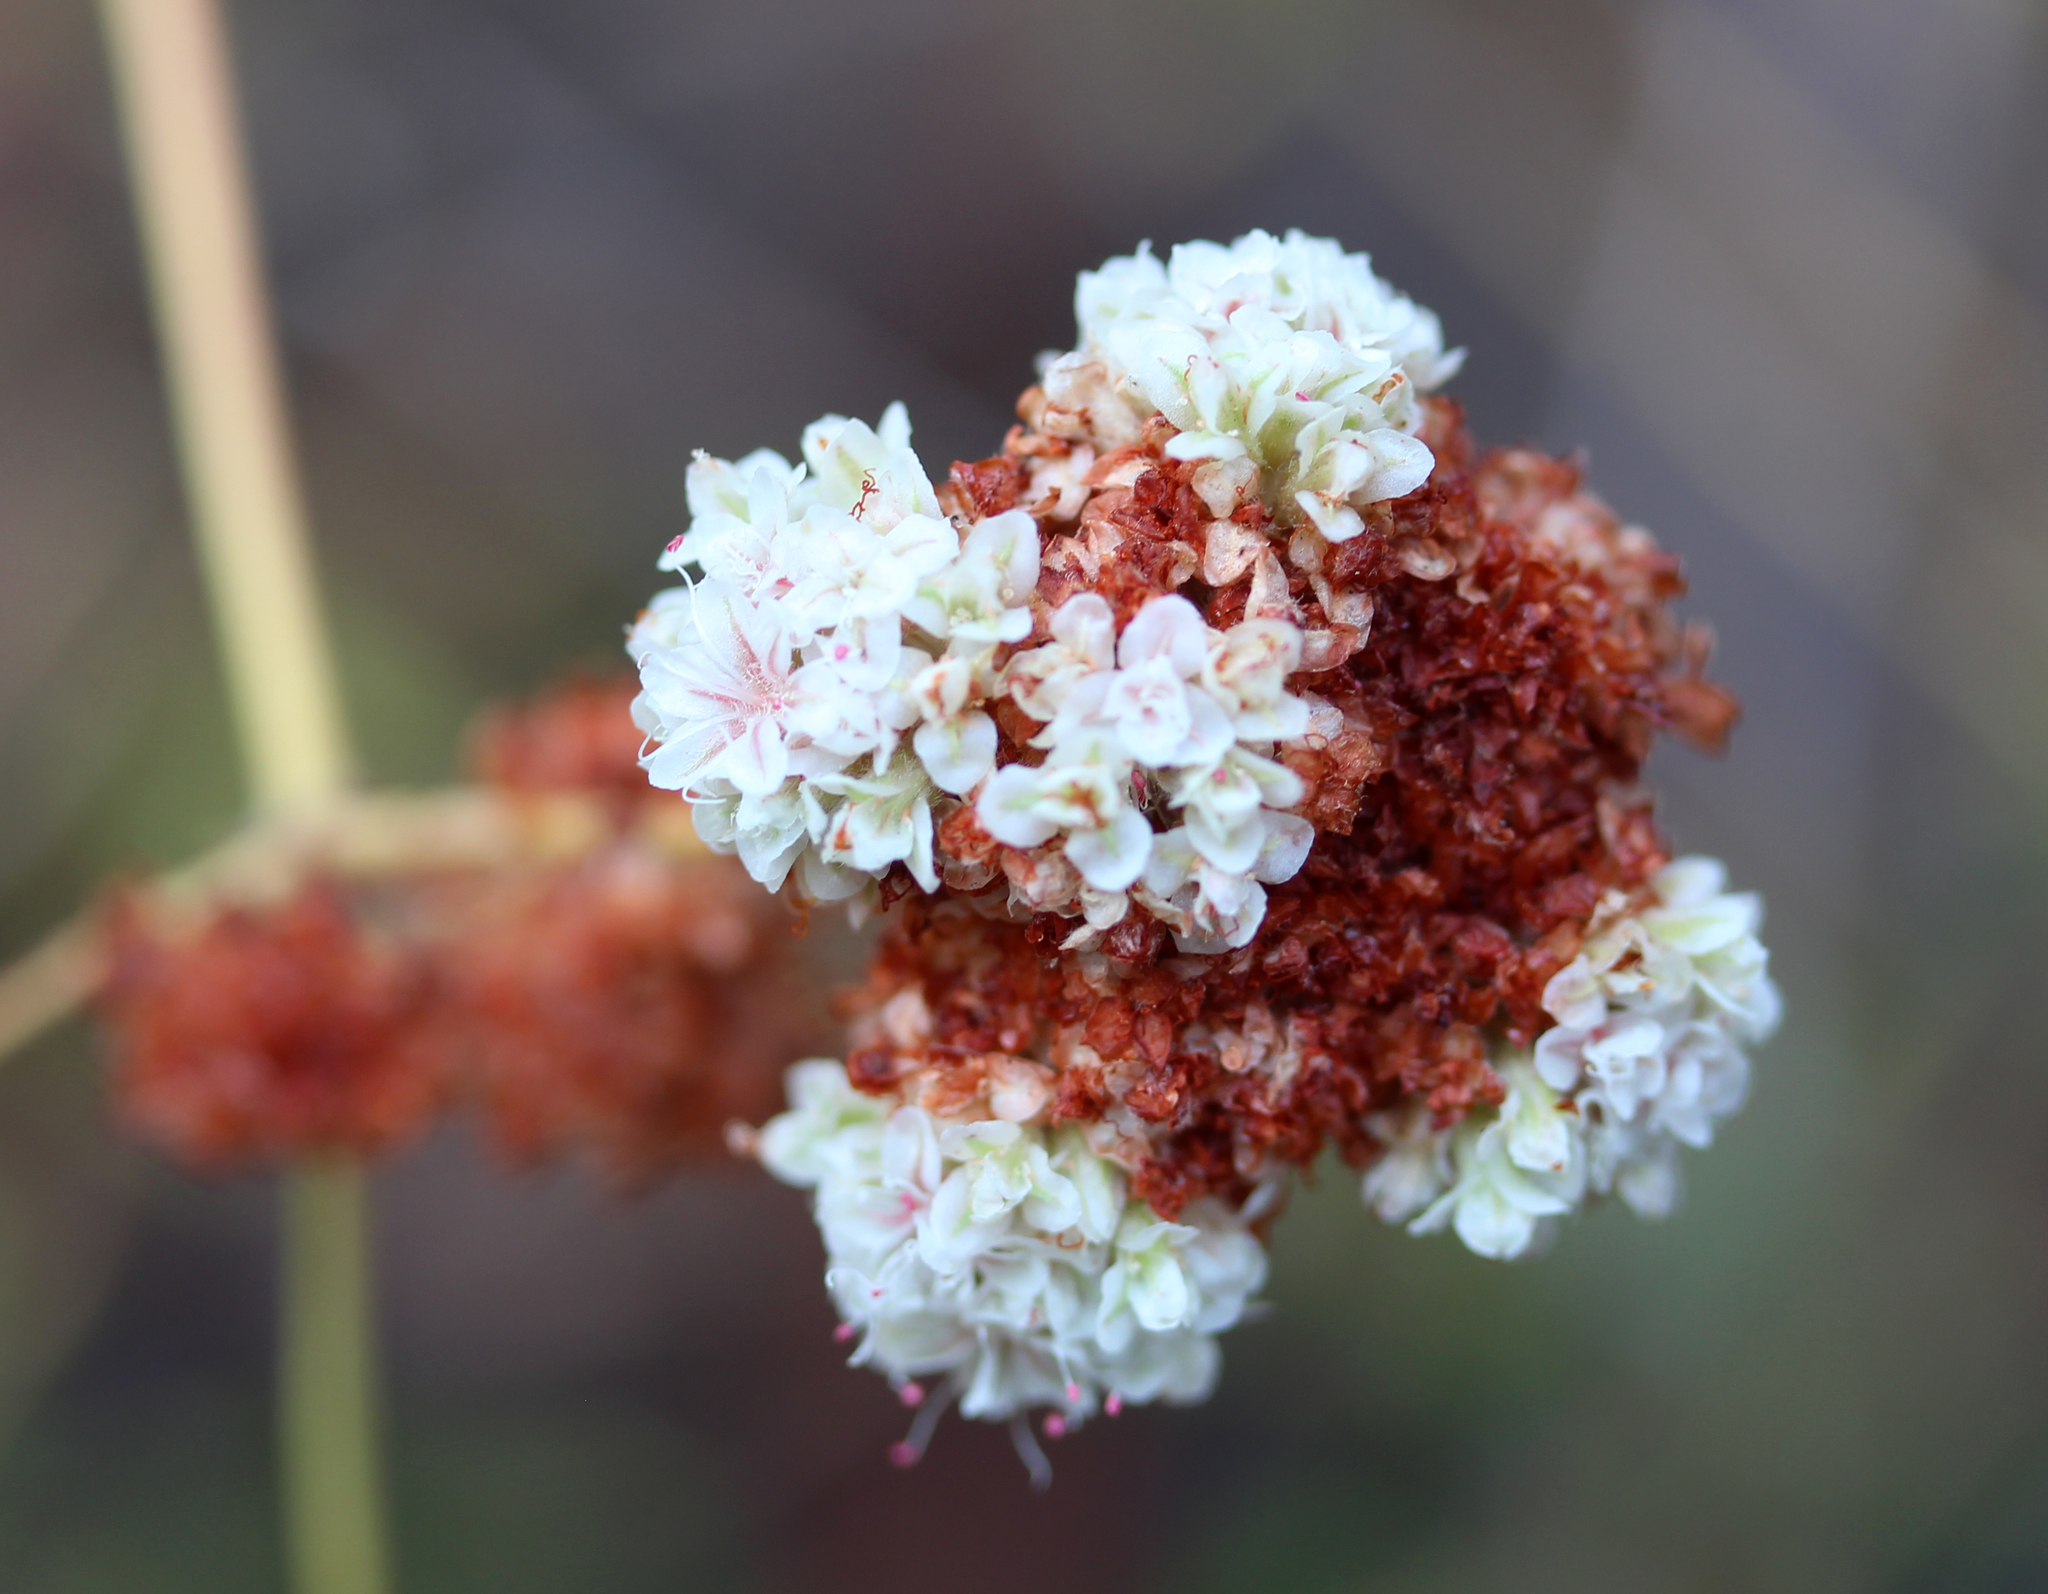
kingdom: Plantae
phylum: Tracheophyta
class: Magnoliopsida
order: Caryophyllales
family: Polygonaceae
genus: Eriogonum
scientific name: Eriogonum fasciculatum
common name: California wild buckwheat
